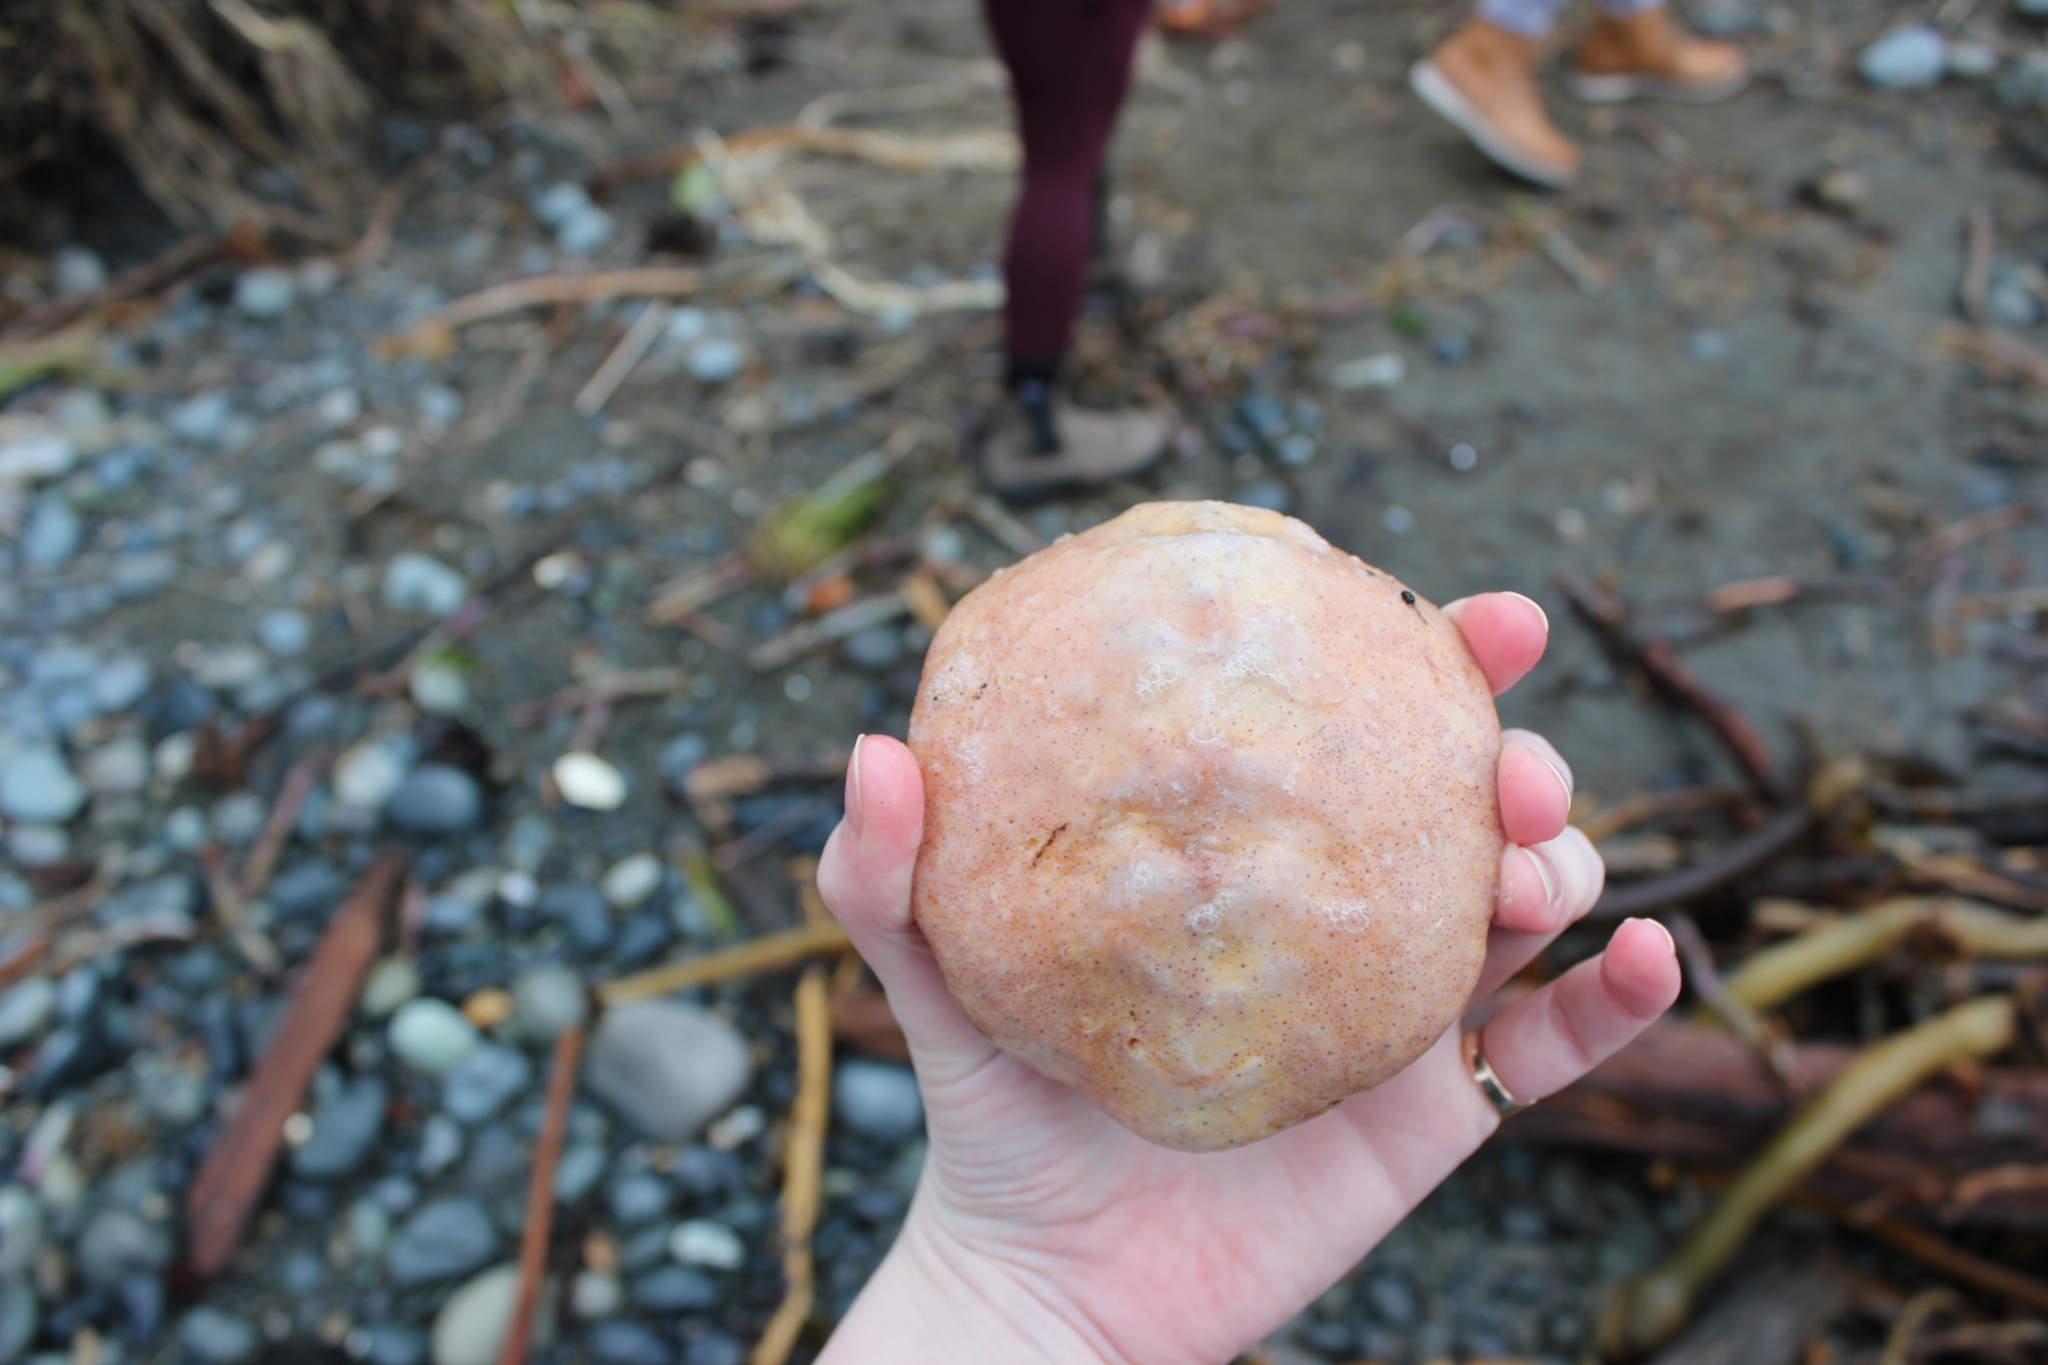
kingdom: Animalia
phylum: Mollusca
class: Polyplacophora
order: Chitonida
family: Acanthochitonidae
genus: Cryptochiton
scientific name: Cryptochiton stelleri
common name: Giant pacific chiton
